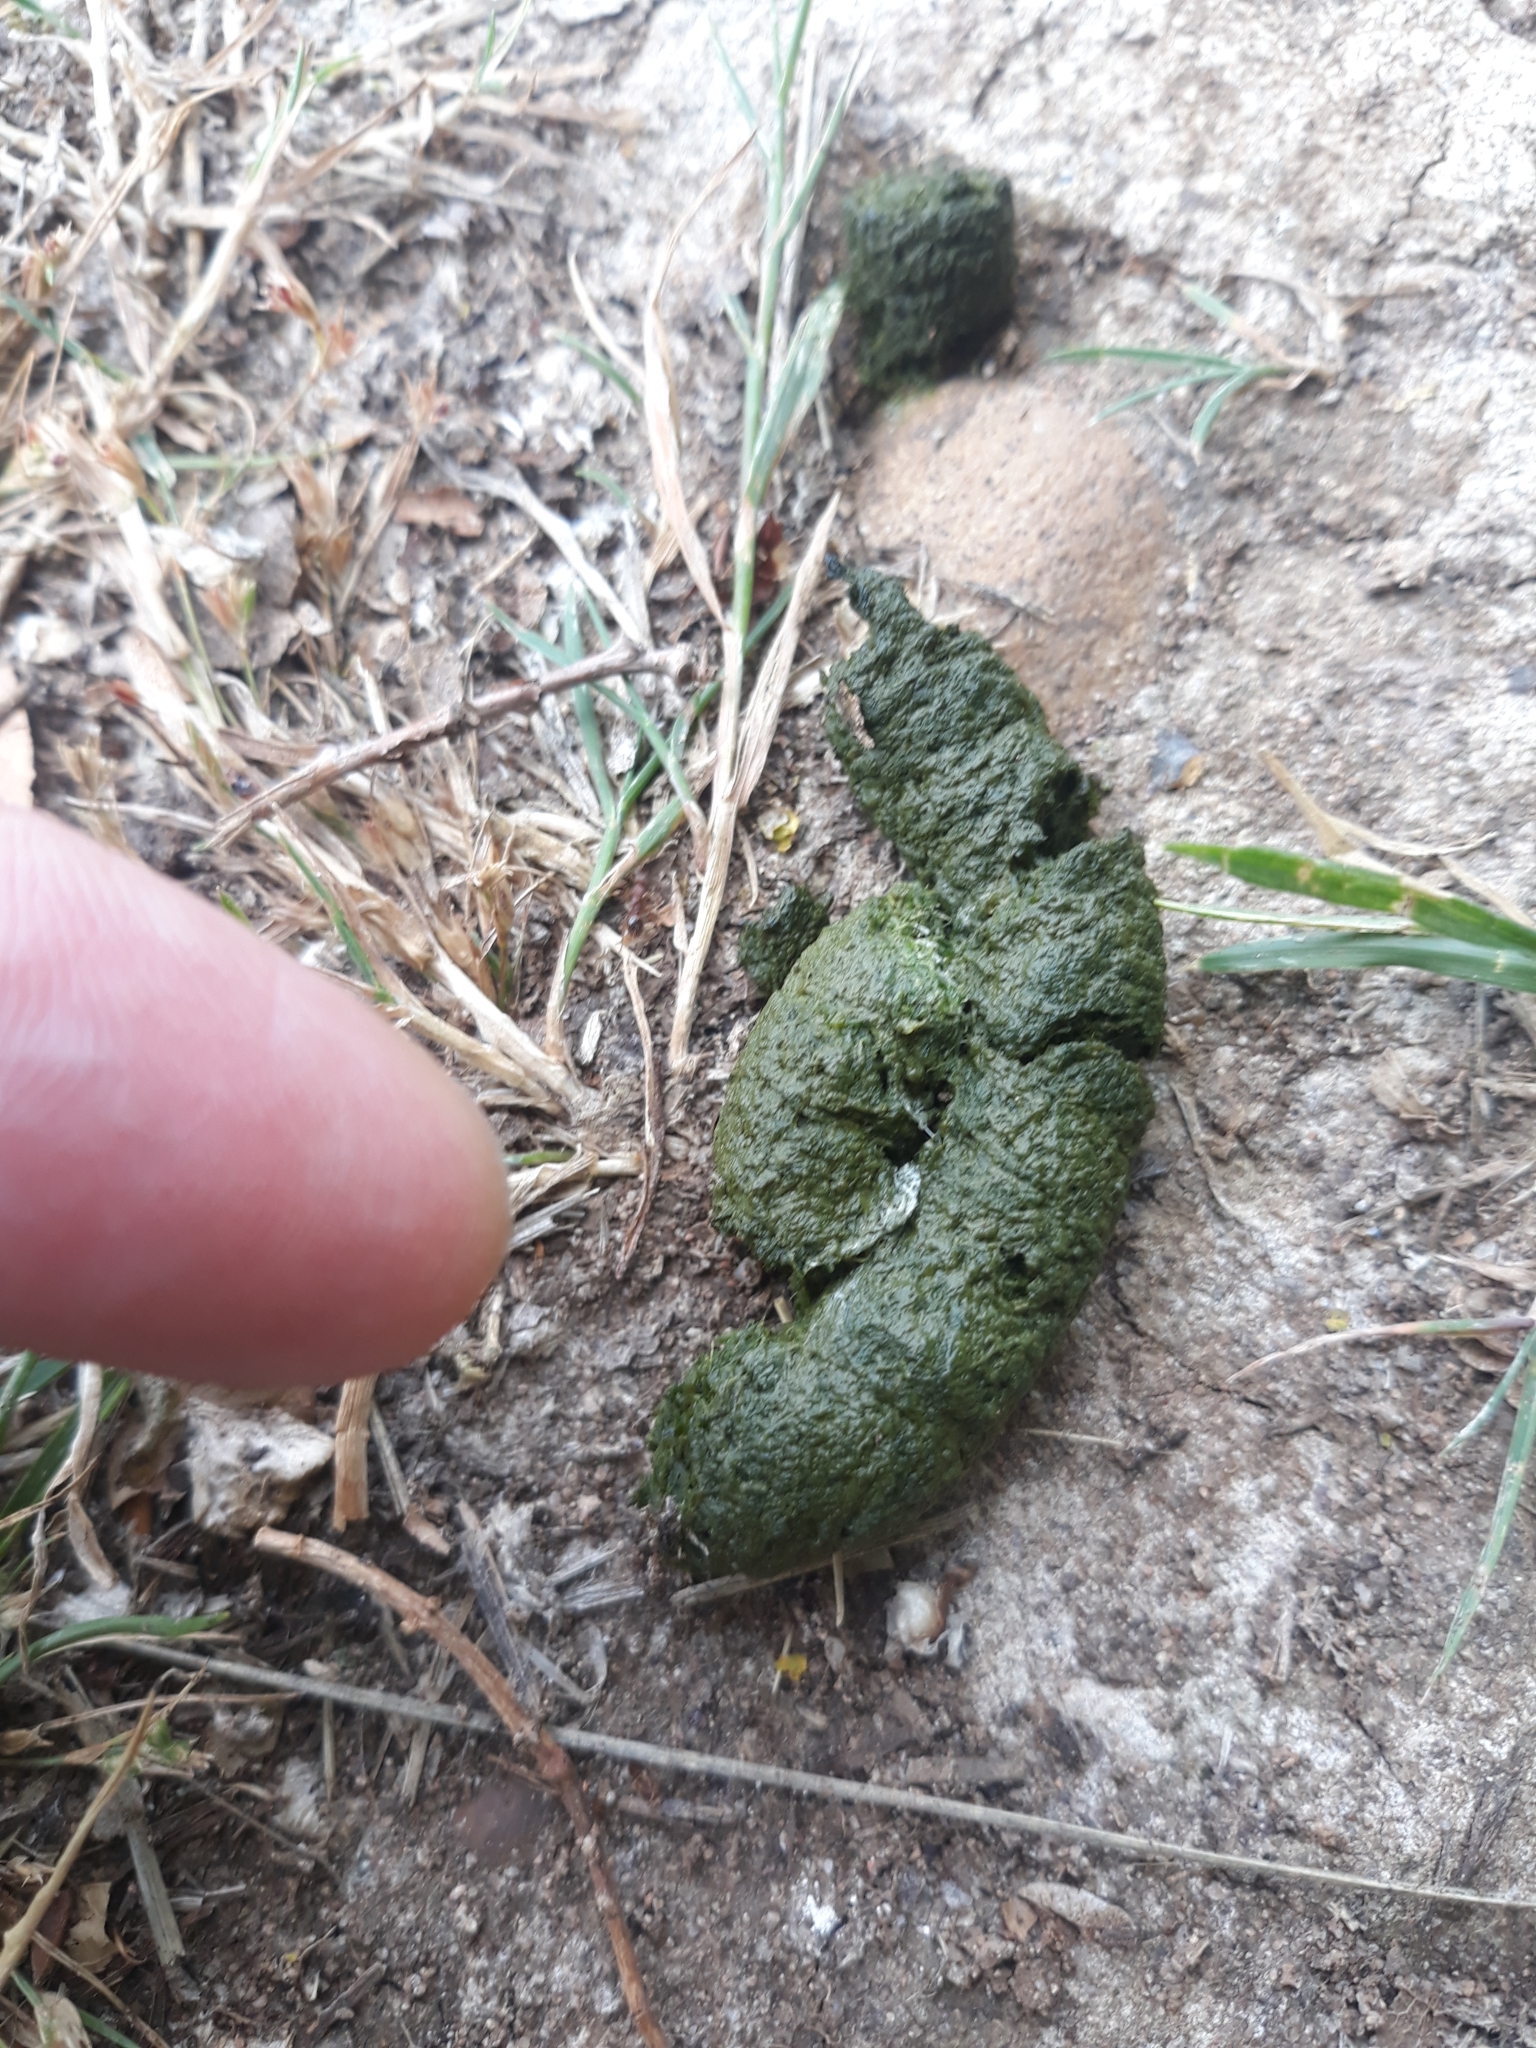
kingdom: Animalia
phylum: Chordata
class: Aves
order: Anseriformes
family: Anatidae
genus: Branta
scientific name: Branta canadensis
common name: Canada goose
